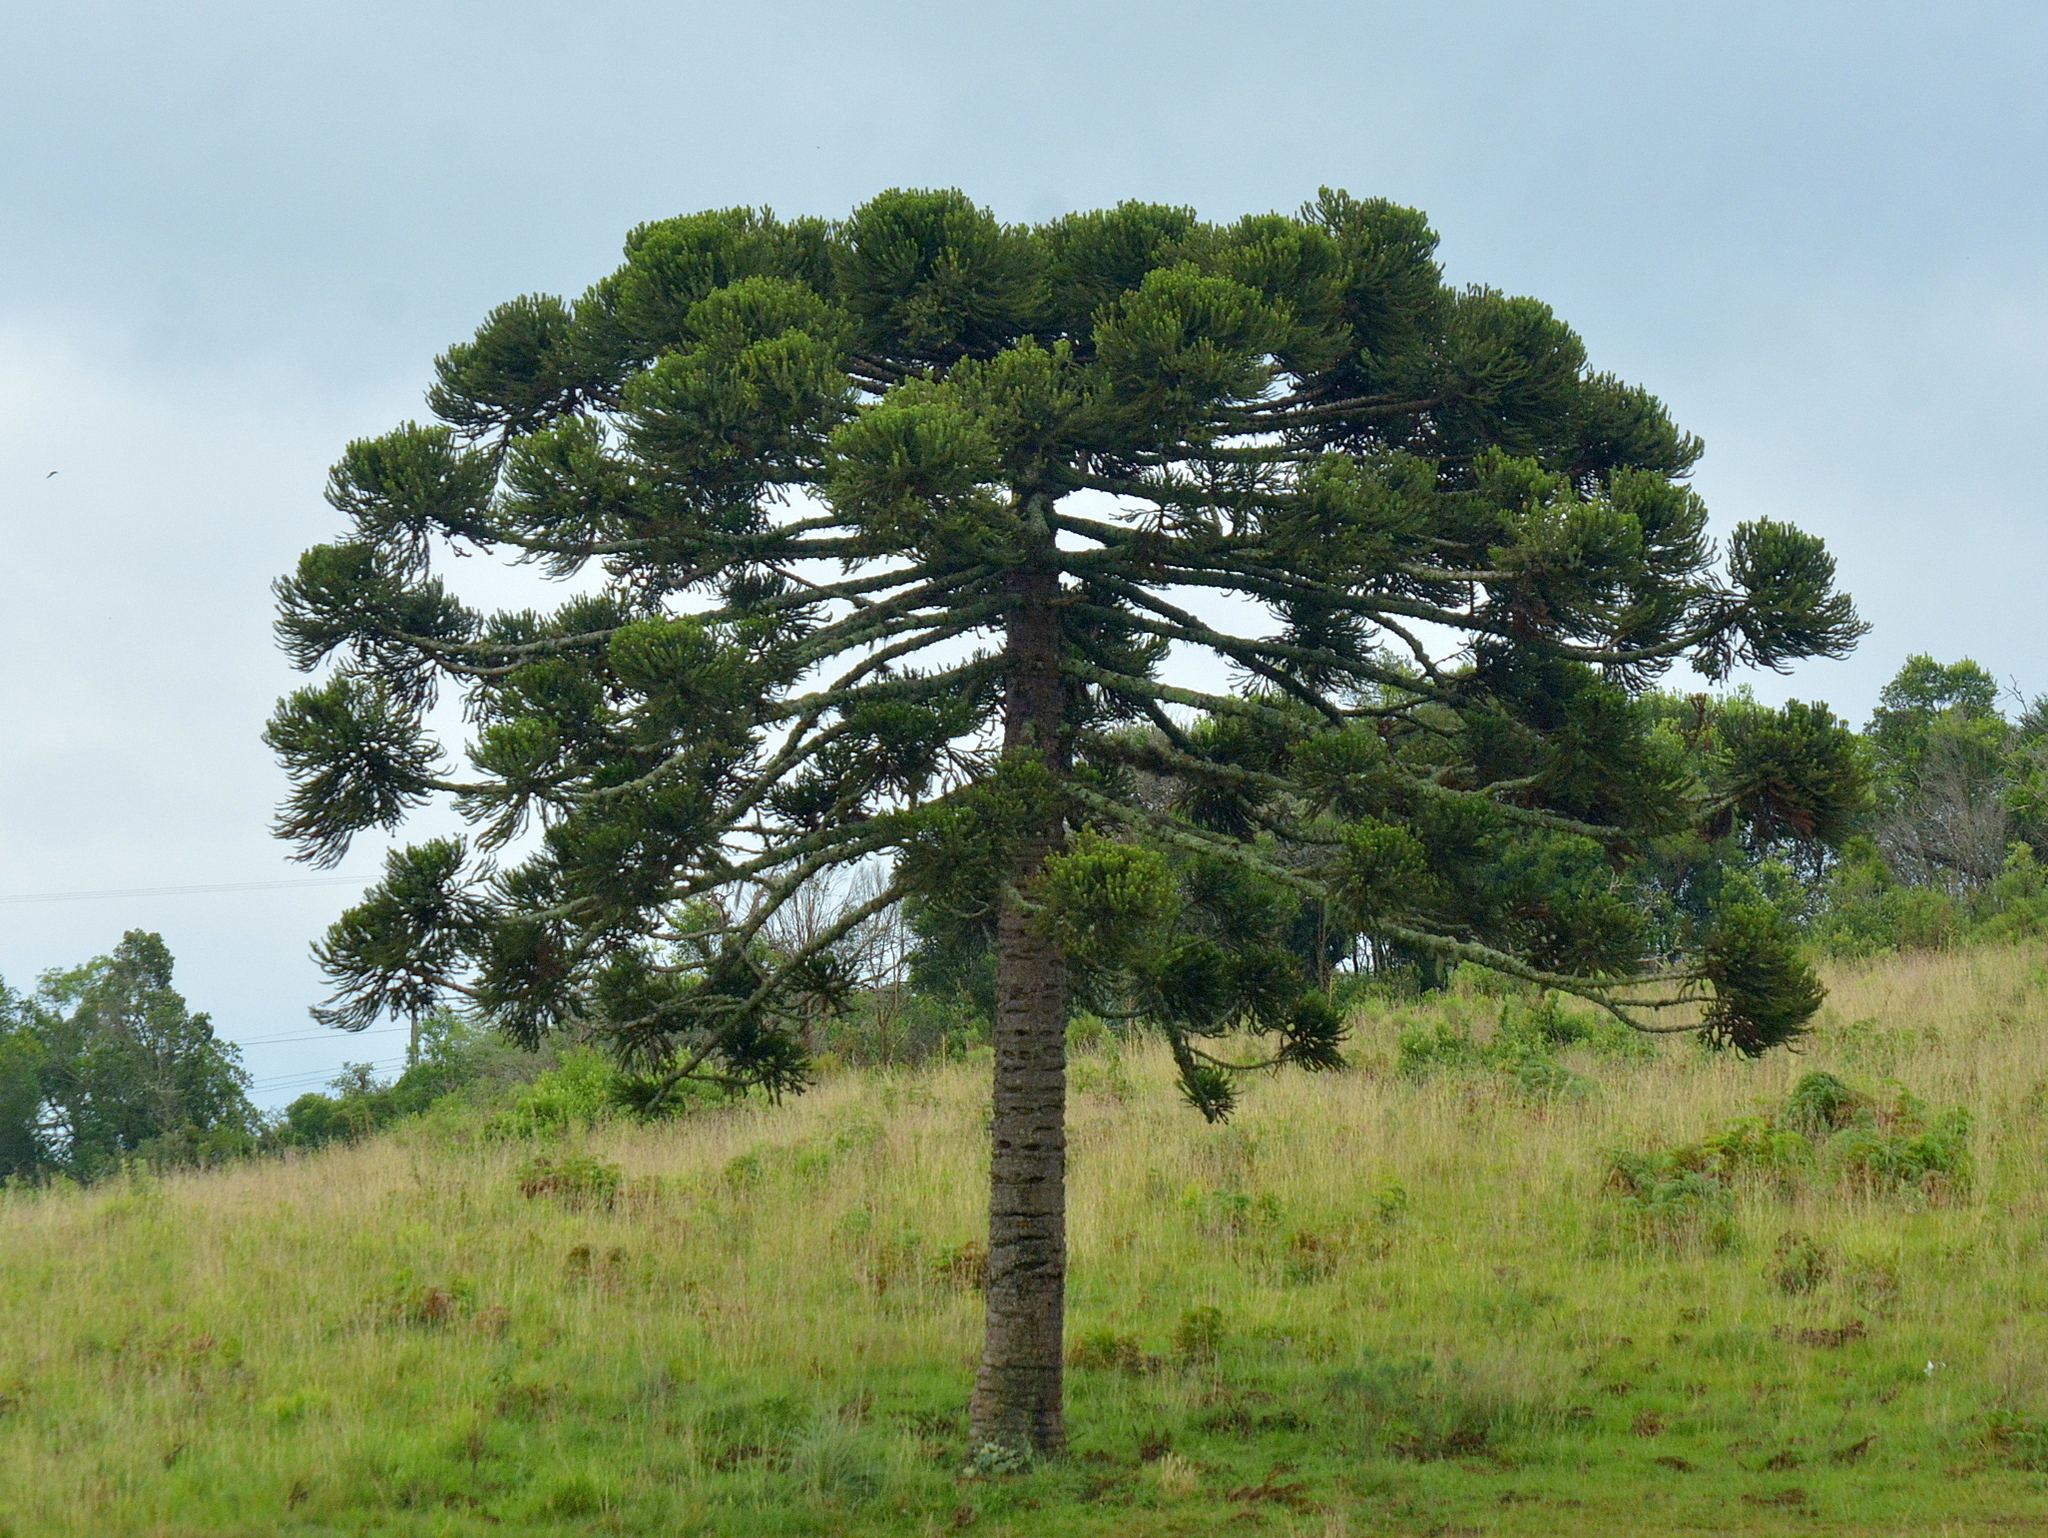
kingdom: Plantae
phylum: Tracheophyta
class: Pinopsida
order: Pinales
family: Araucariaceae
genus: Araucaria
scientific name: Araucaria angustifolia
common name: Candelabra tree
